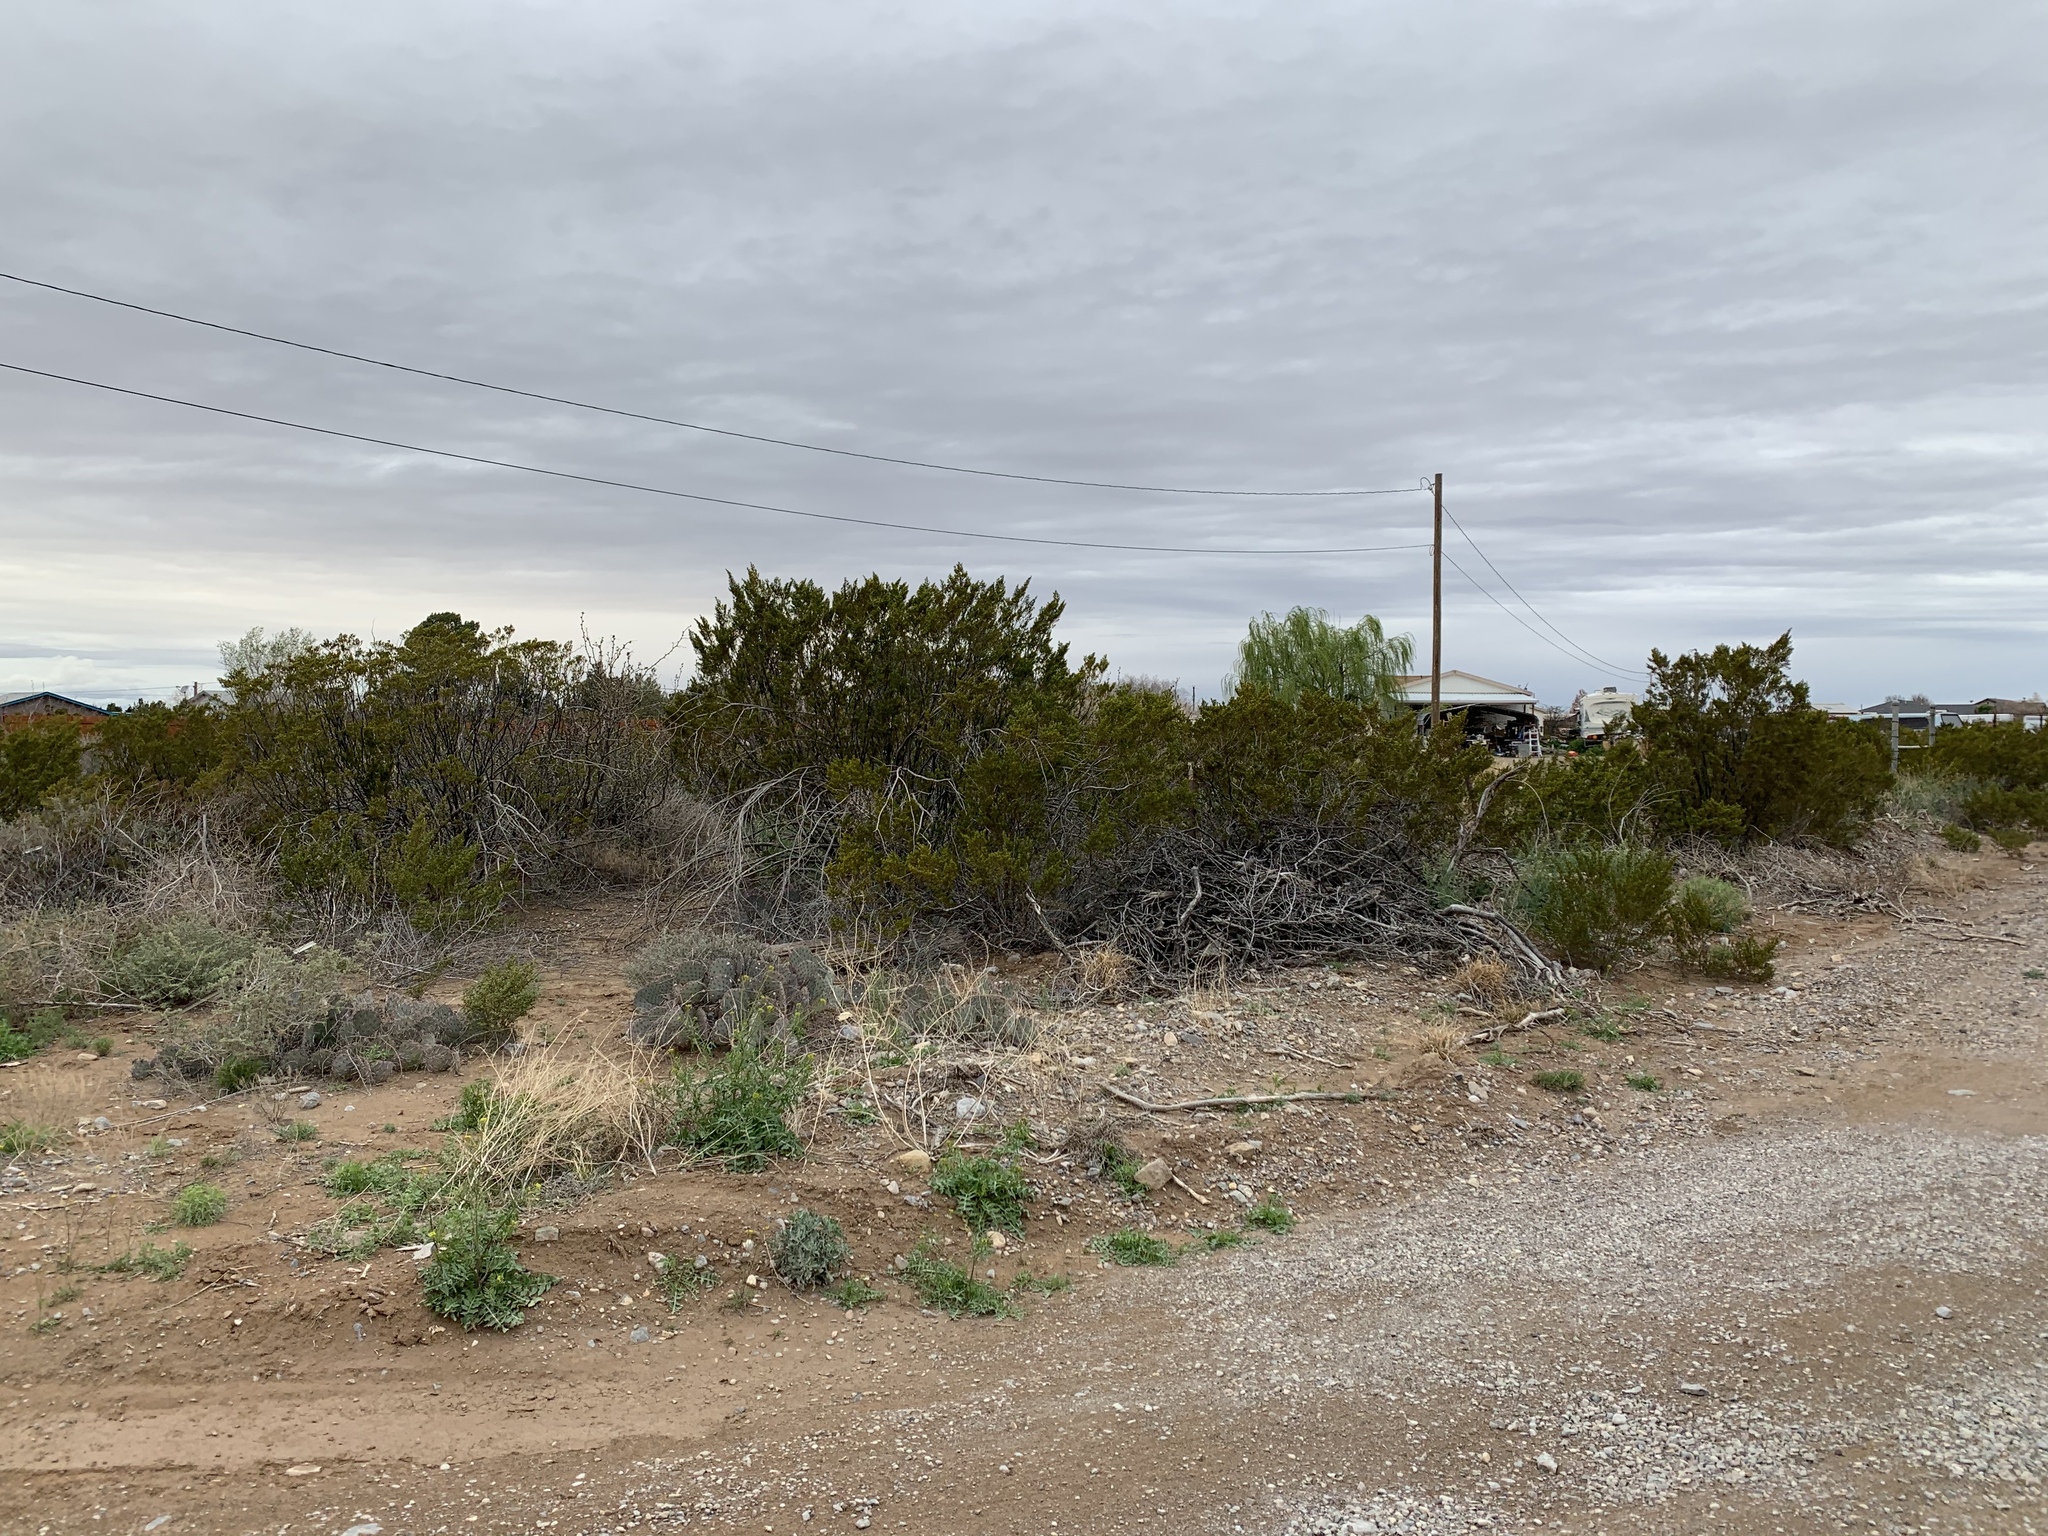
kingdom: Plantae
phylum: Tracheophyta
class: Magnoliopsida
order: Zygophyllales
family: Zygophyllaceae
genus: Larrea
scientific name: Larrea tridentata
